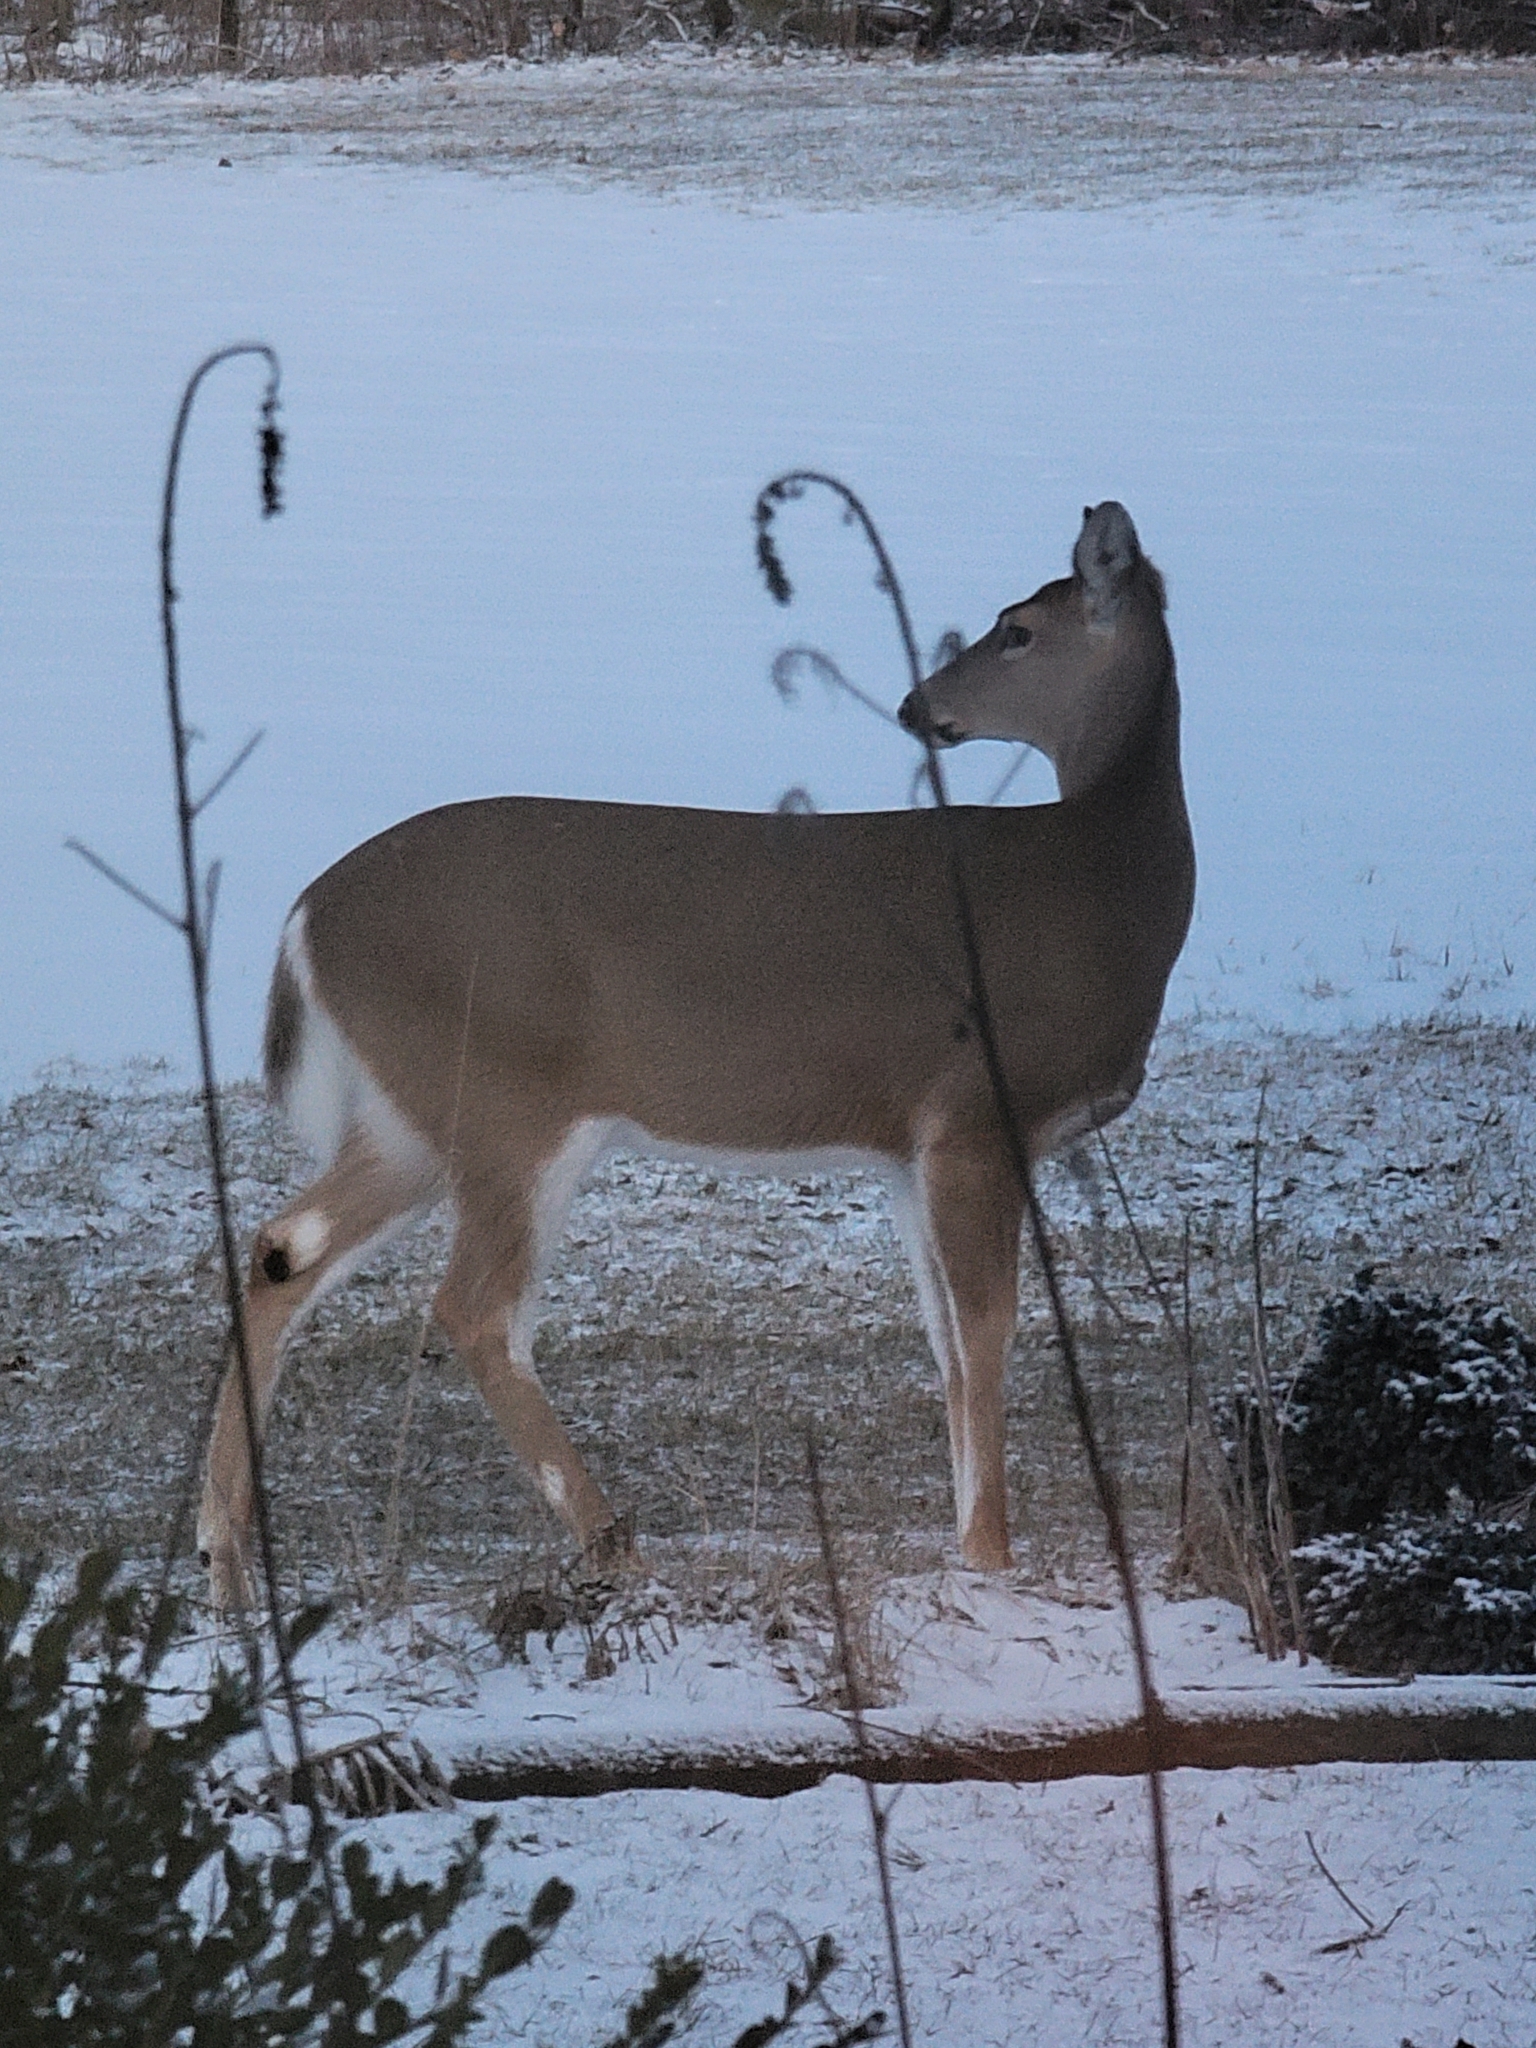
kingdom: Animalia
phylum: Chordata
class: Mammalia
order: Artiodactyla
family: Cervidae
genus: Odocoileus
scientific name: Odocoileus virginianus
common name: White-tailed deer
